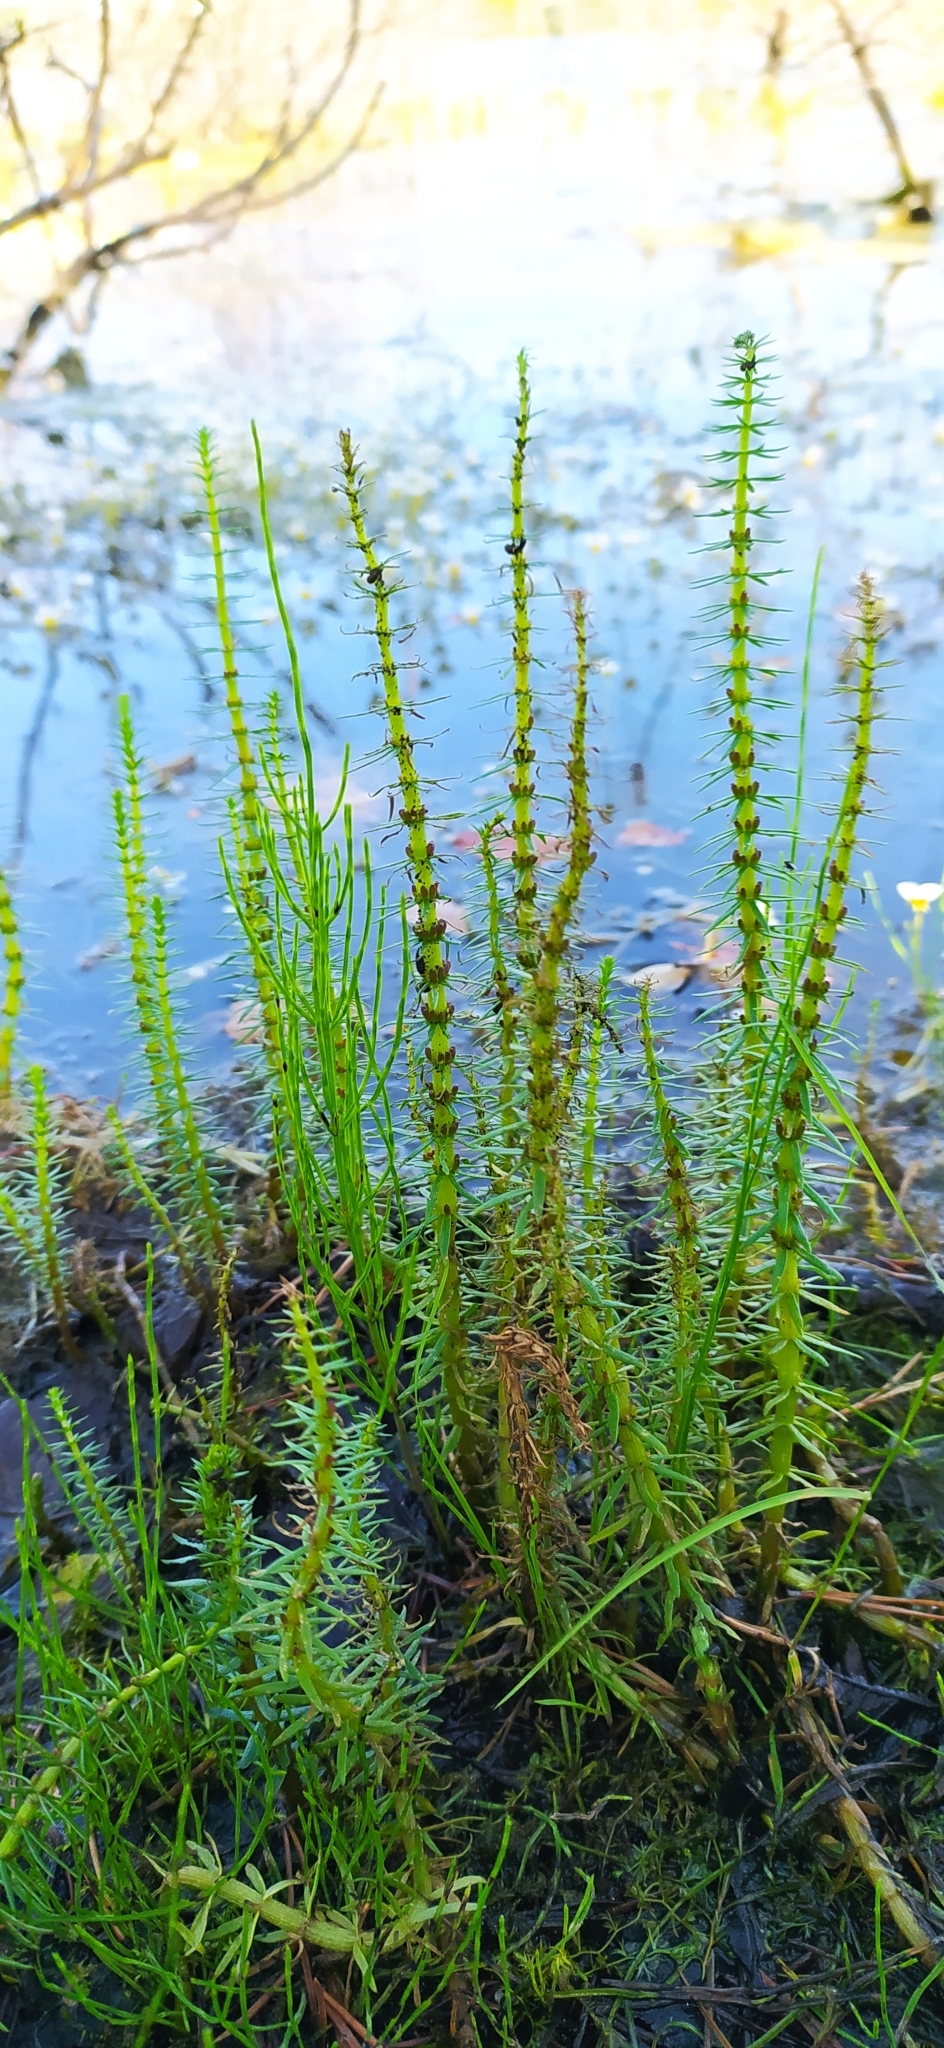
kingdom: Plantae
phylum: Tracheophyta
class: Magnoliopsida
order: Lamiales
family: Plantaginaceae
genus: Hippuris
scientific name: Hippuris vulgaris
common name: Mare's-tail
